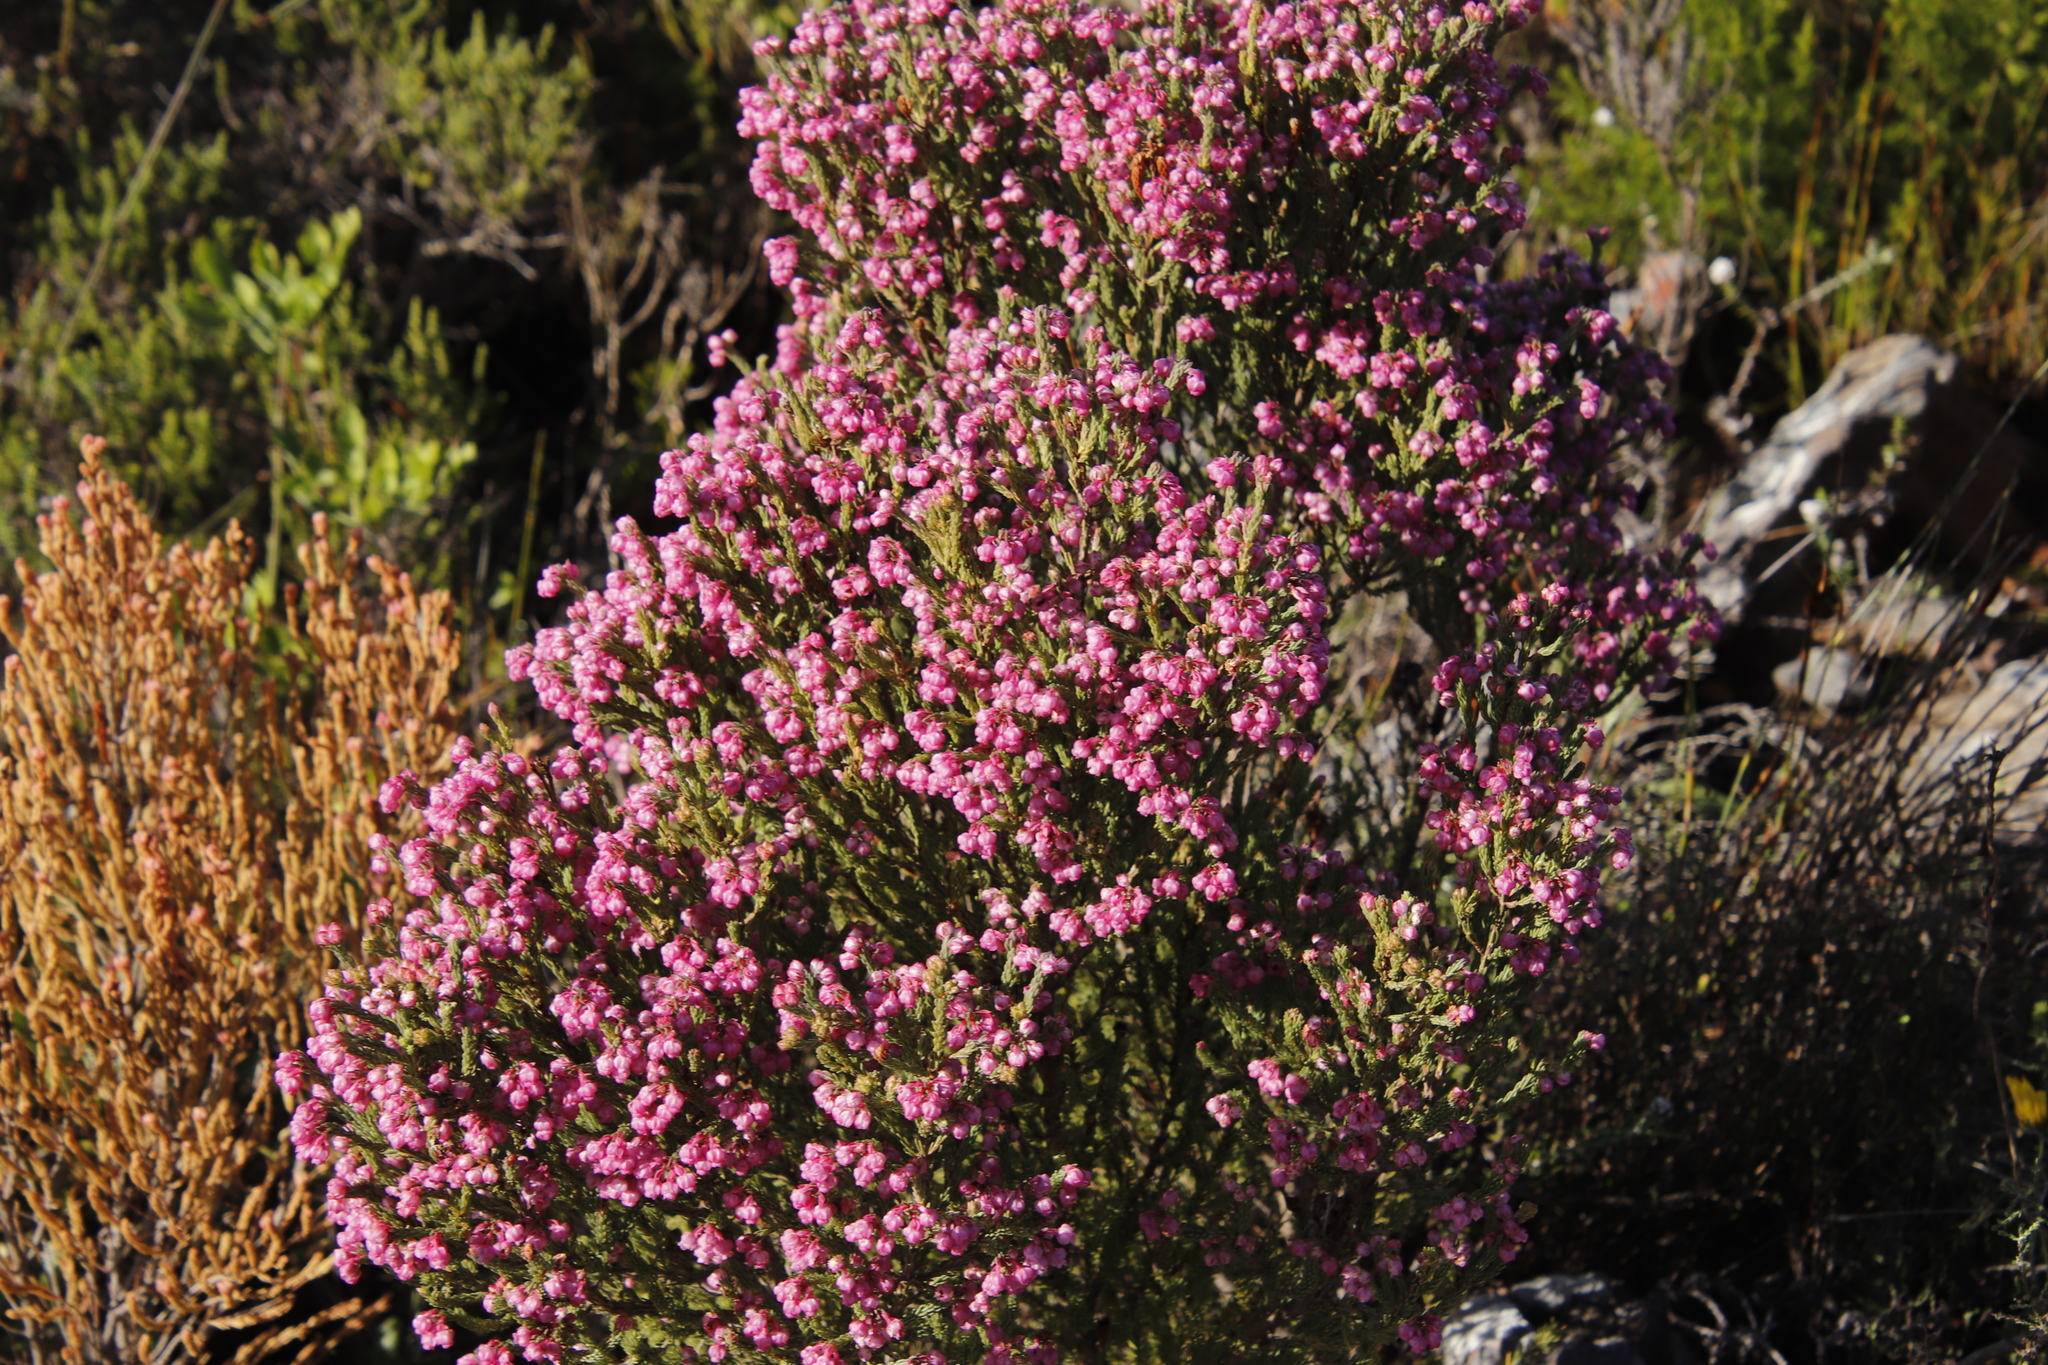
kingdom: Plantae
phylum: Tracheophyta
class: Magnoliopsida
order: Ericales
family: Ericaceae
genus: Erica
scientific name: Erica baccans
